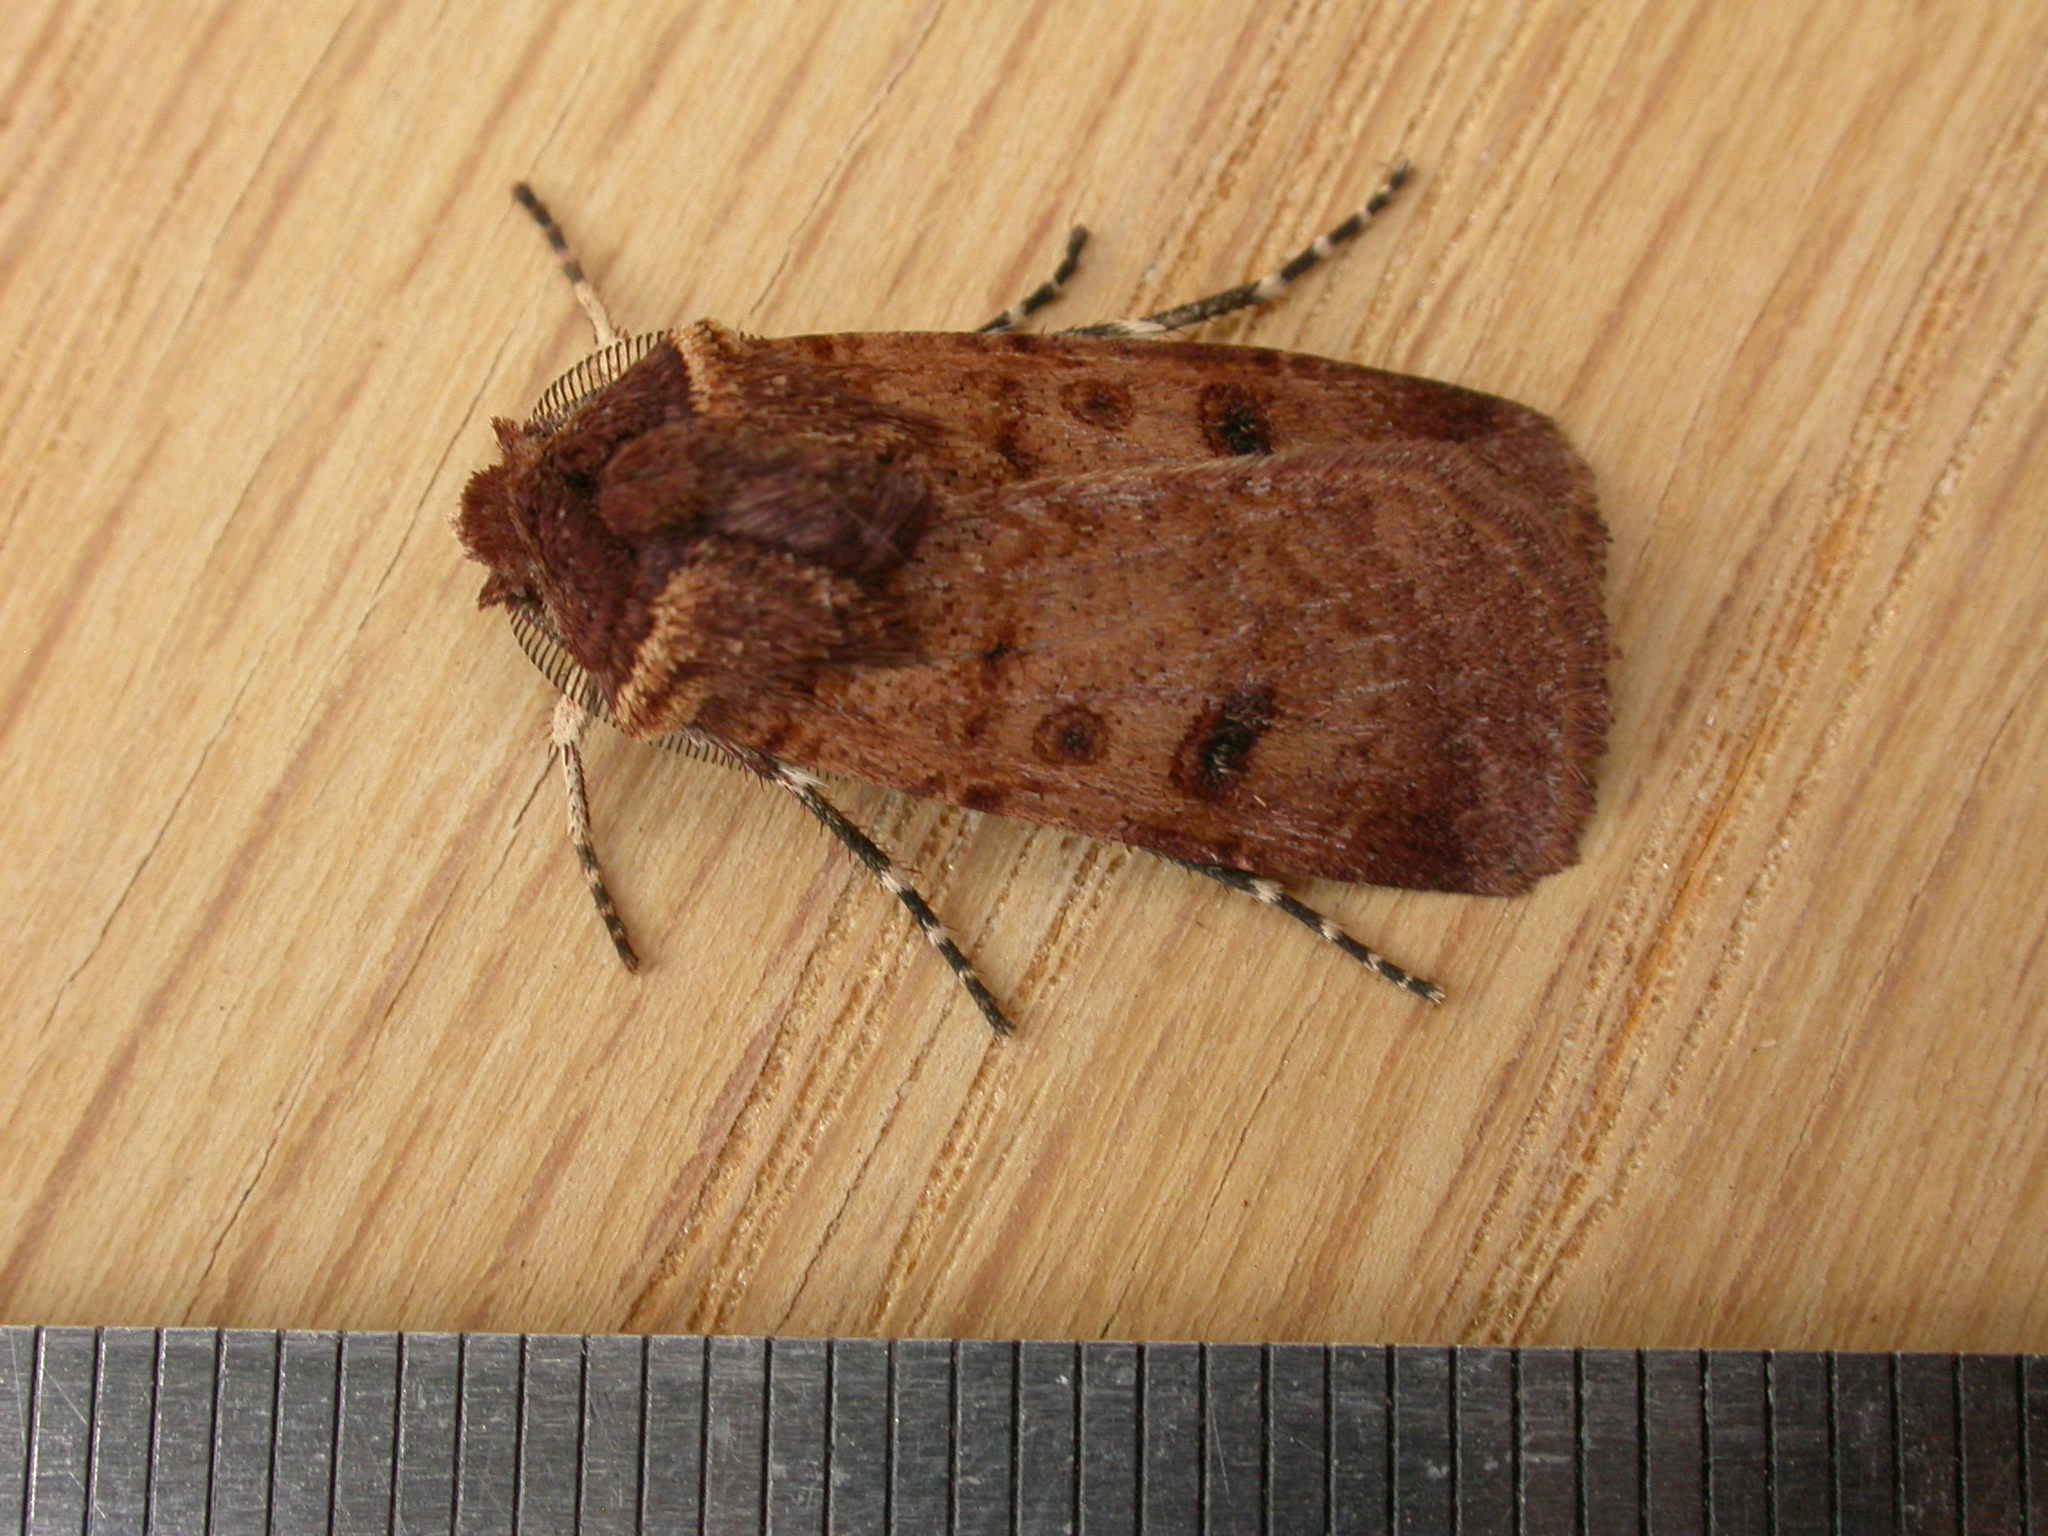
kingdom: Animalia
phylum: Arthropoda
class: Insecta
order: Lepidoptera
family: Noctuidae
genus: Agrotis
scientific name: Agrotis porphyricollis
